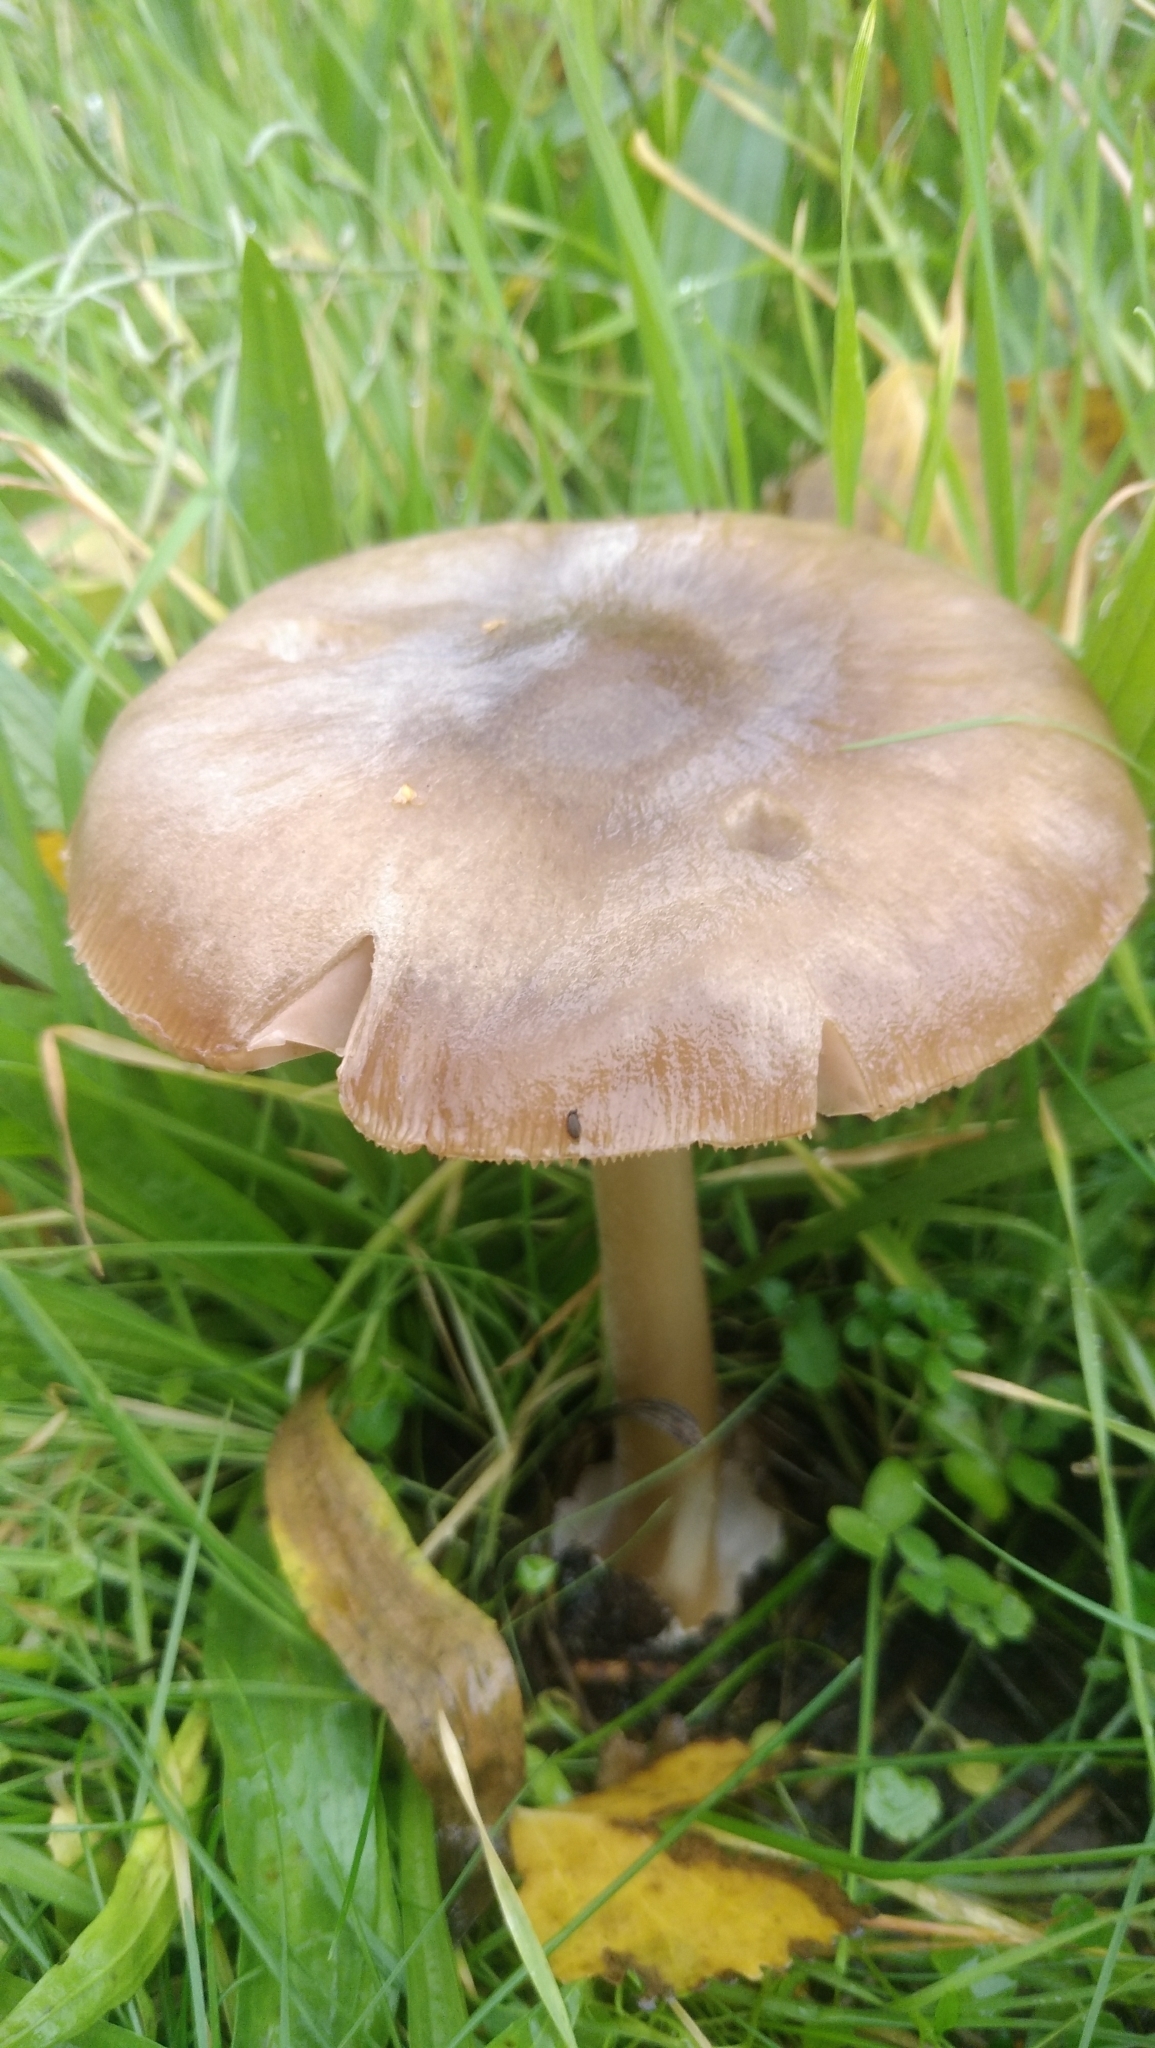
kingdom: Fungi
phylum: Basidiomycota
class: Agaricomycetes
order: Agaricales
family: Pluteaceae
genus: Volvopluteus
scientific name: Volvopluteus gloiocephalus
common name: Stubble rosegill
